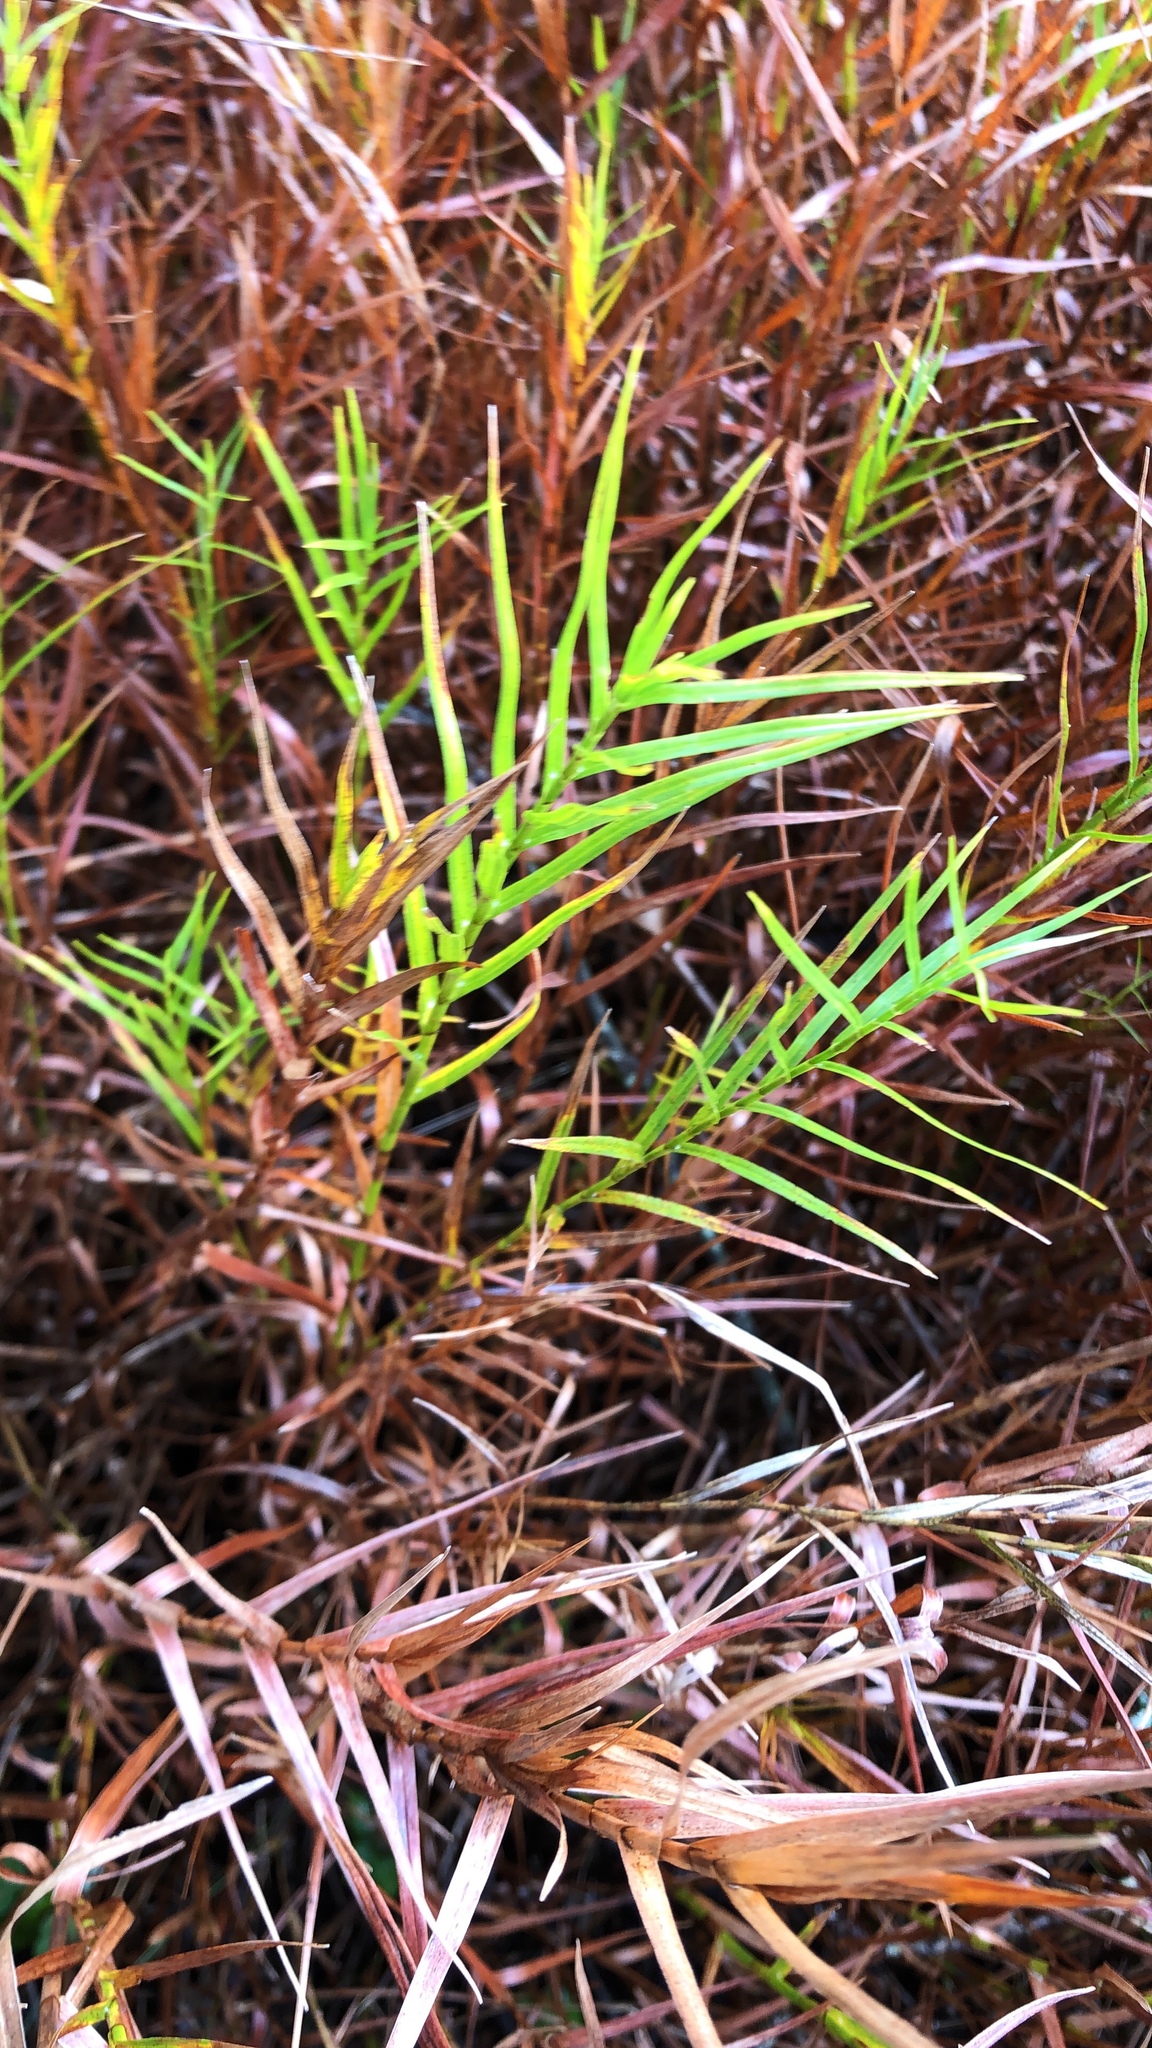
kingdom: Plantae
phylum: Tracheophyta
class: Liliopsida
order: Poales
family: Cyperaceae
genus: Dulichium
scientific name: Dulichium arundinaceum
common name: Three-way sedge
